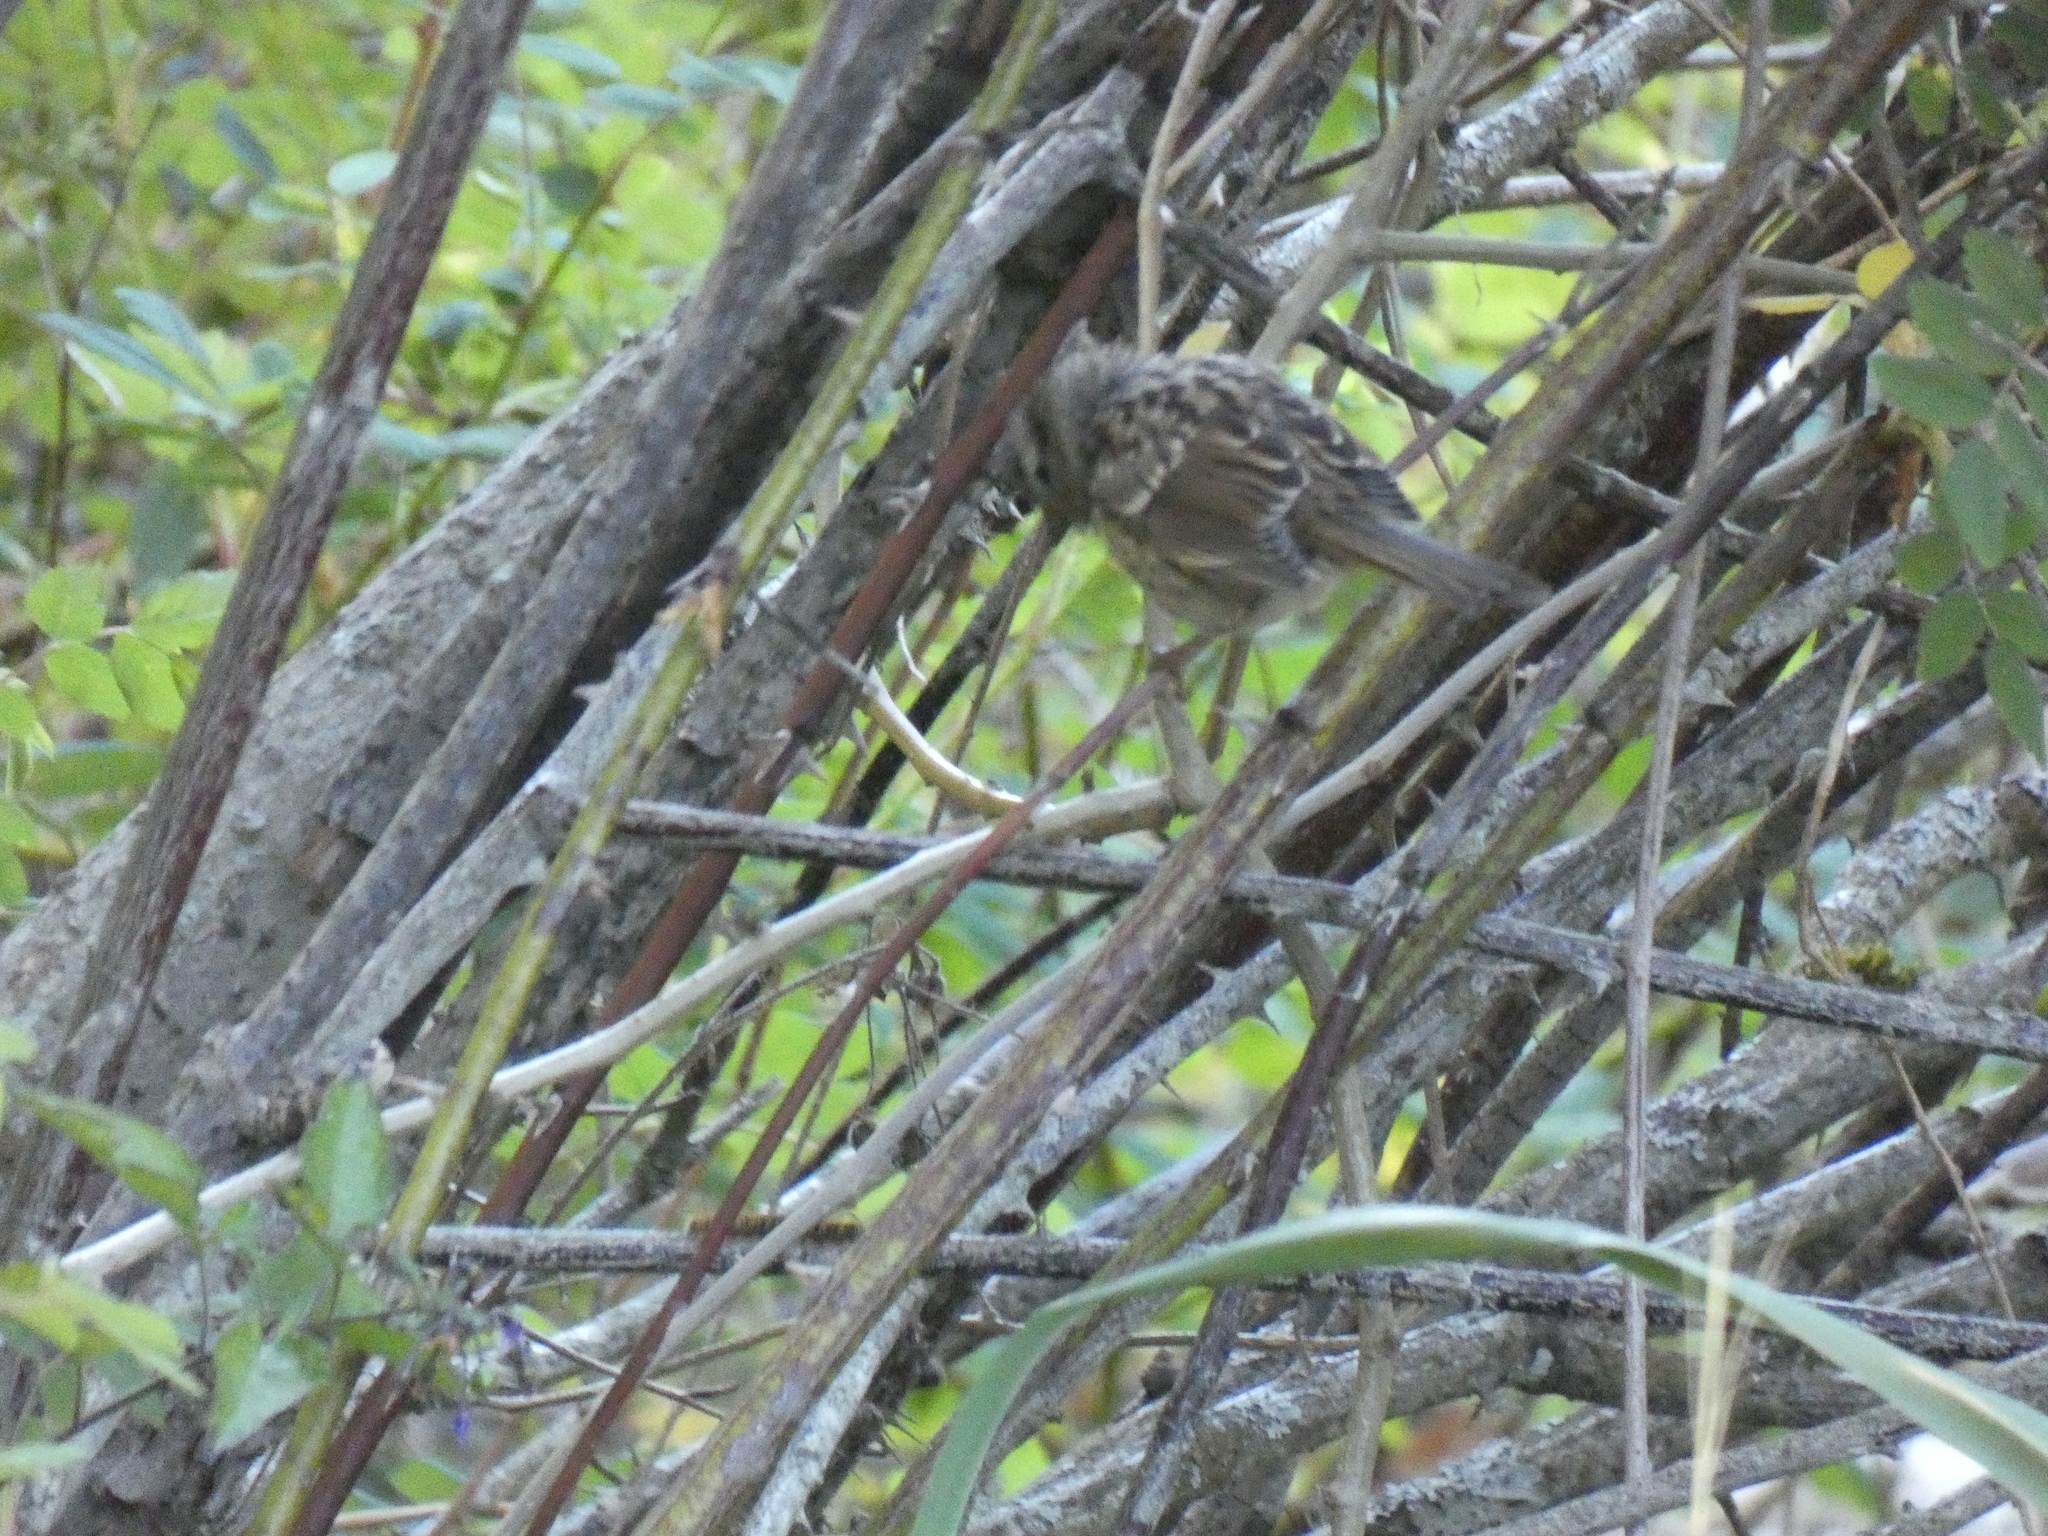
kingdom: Animalia
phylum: Chordata
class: Aves
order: Passeriformes
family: Passerellidae
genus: Zonotrichia
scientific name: Zonotrichia leucophrys
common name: White-crowned sparrow
